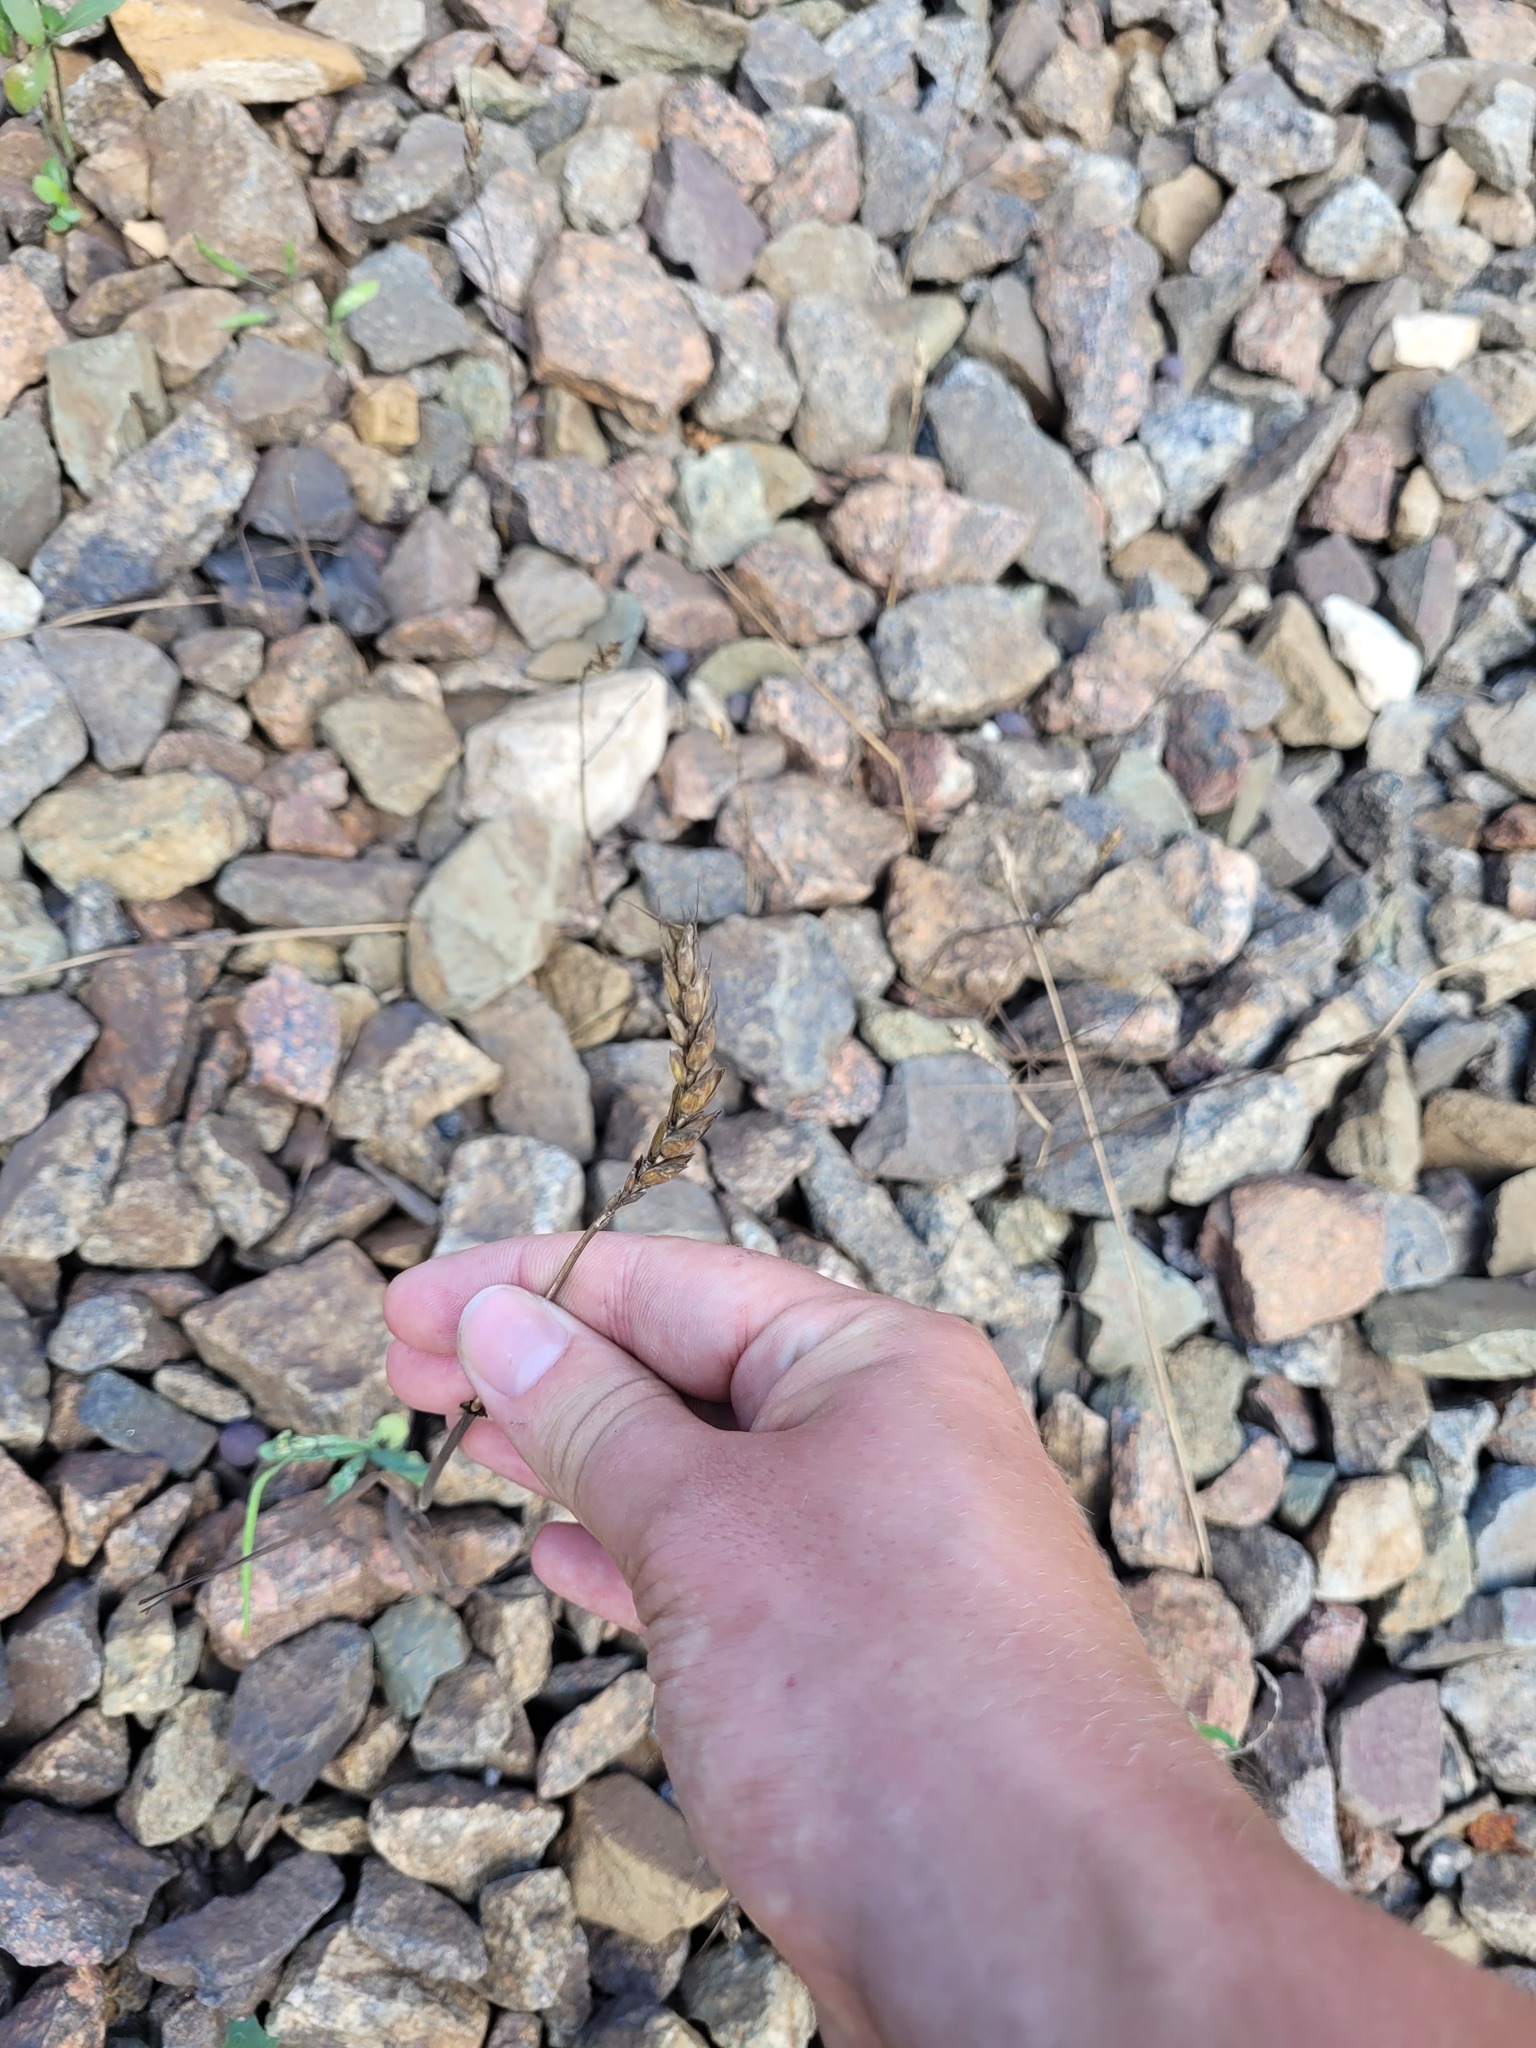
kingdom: Plantae
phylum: Tracheophyta
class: Liliopsida
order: Poales
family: Poaceae
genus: Triticum
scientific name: Triticum aestivum
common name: Common wheat
